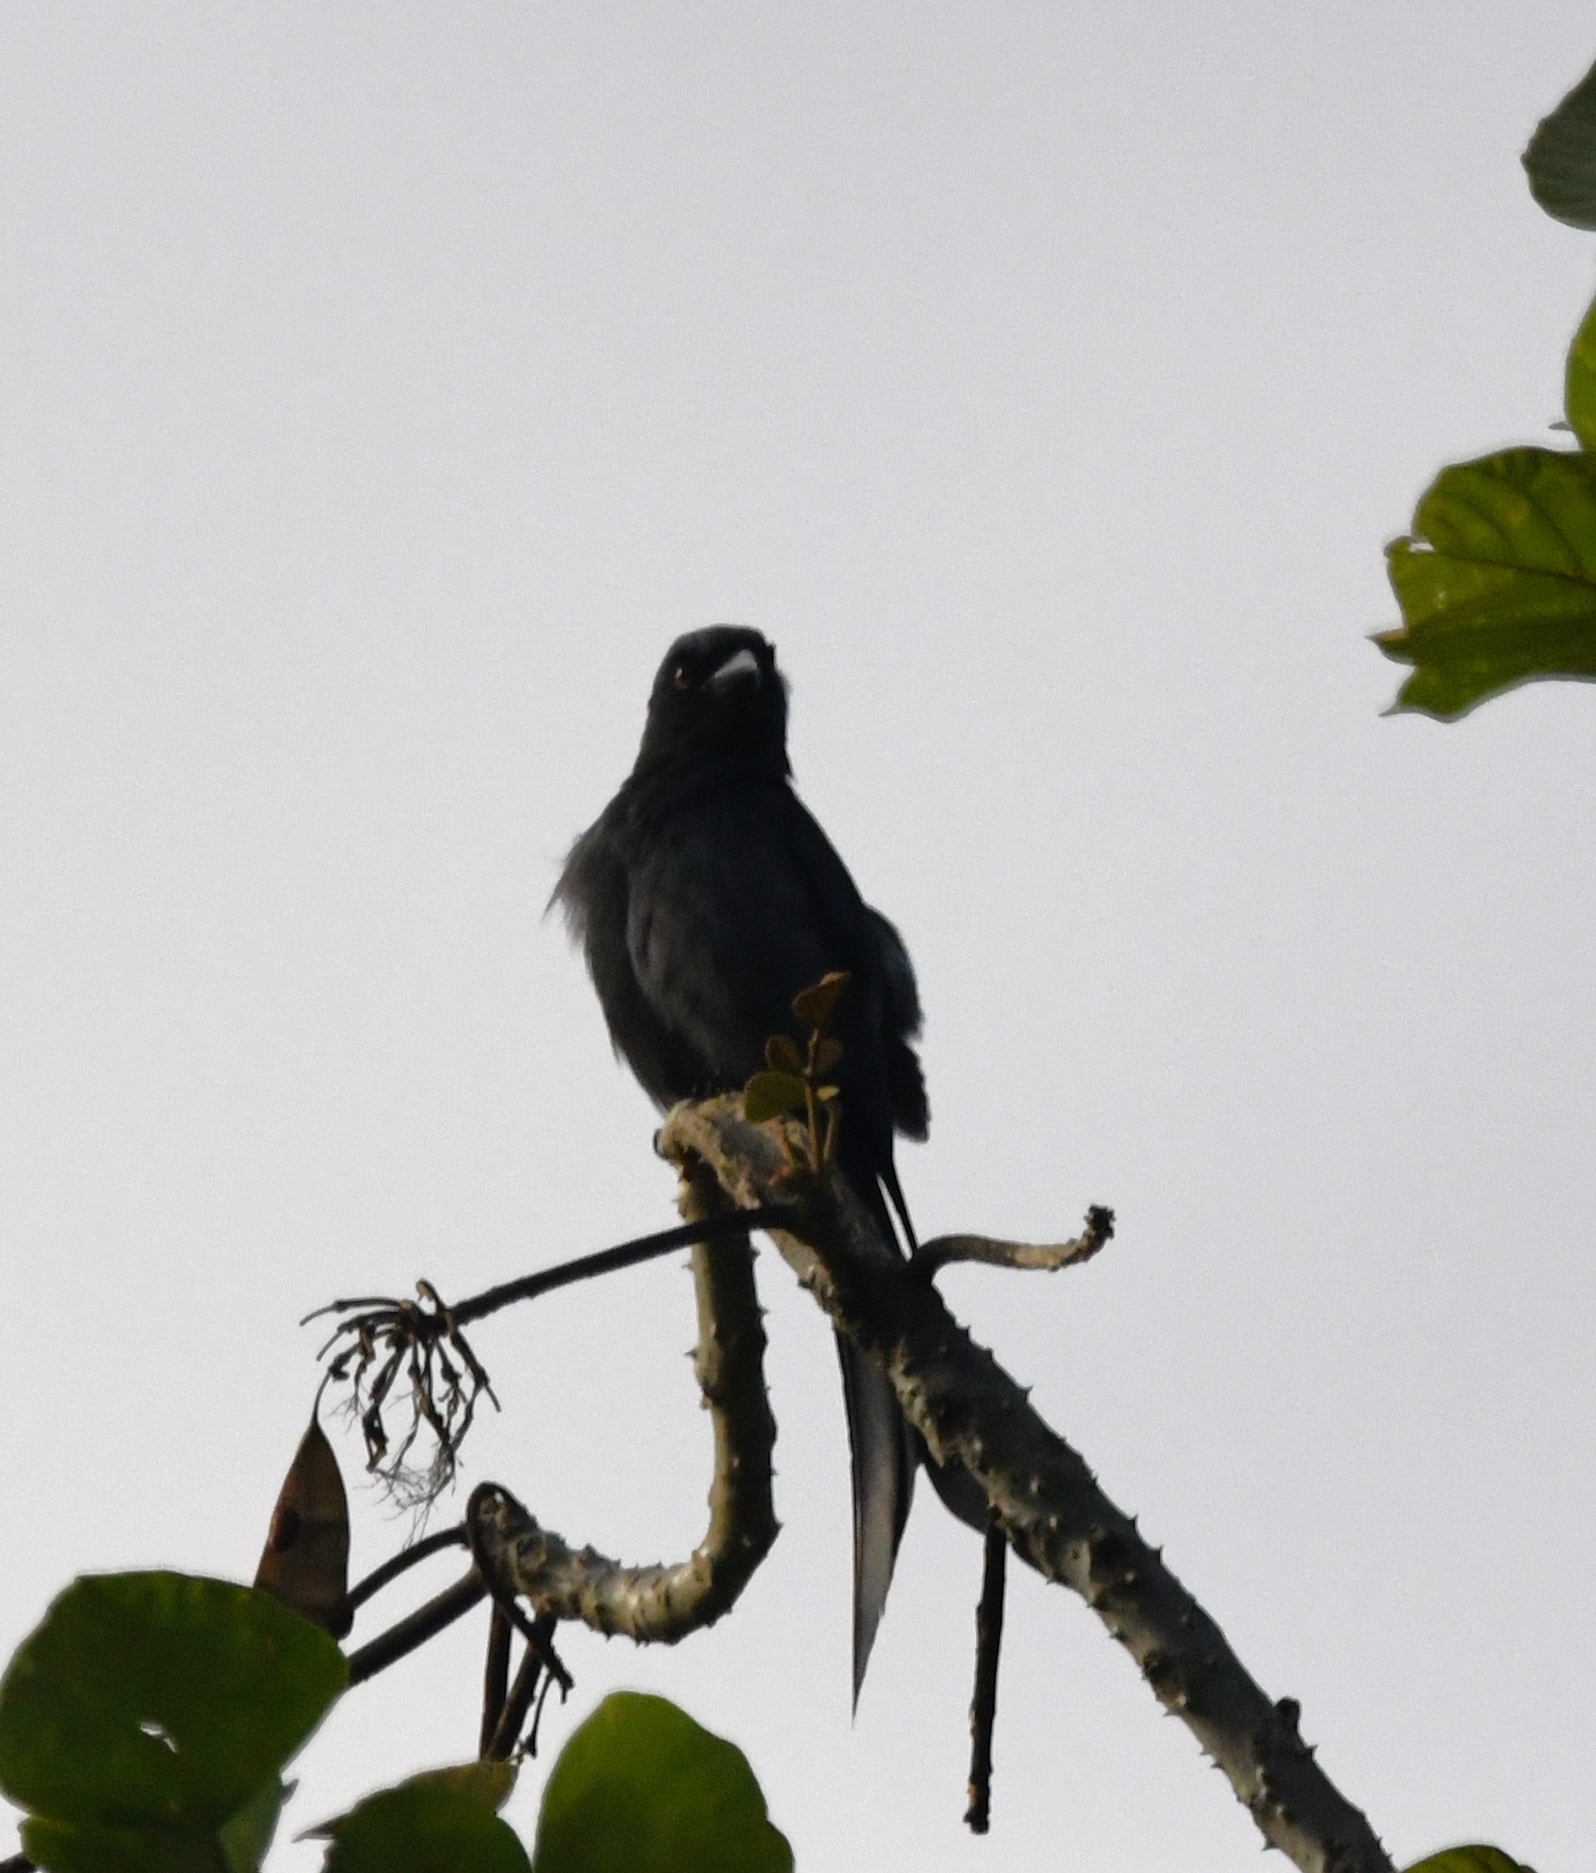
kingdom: Animalia
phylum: Chordata
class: Aves
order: Passeriformes
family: Dicruridae
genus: Dicrurus
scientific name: Dicrurus leucophaeus
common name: Ashy drongo
